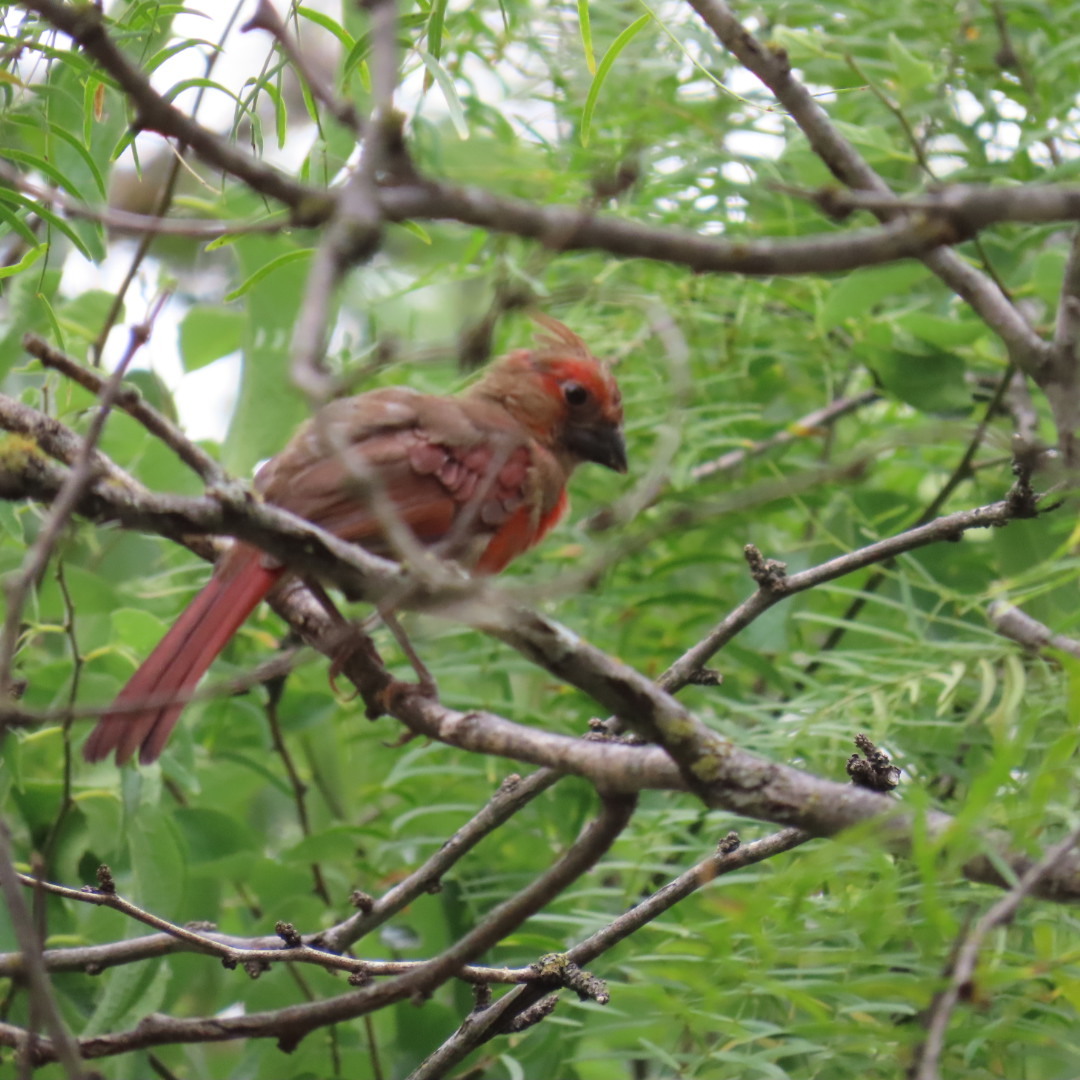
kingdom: Animalia
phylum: Chordata
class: Aves
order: Passeriformes
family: Cardinalidae
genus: Cardinalis
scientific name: Cardinalis cardinalis
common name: Northern cardinal
